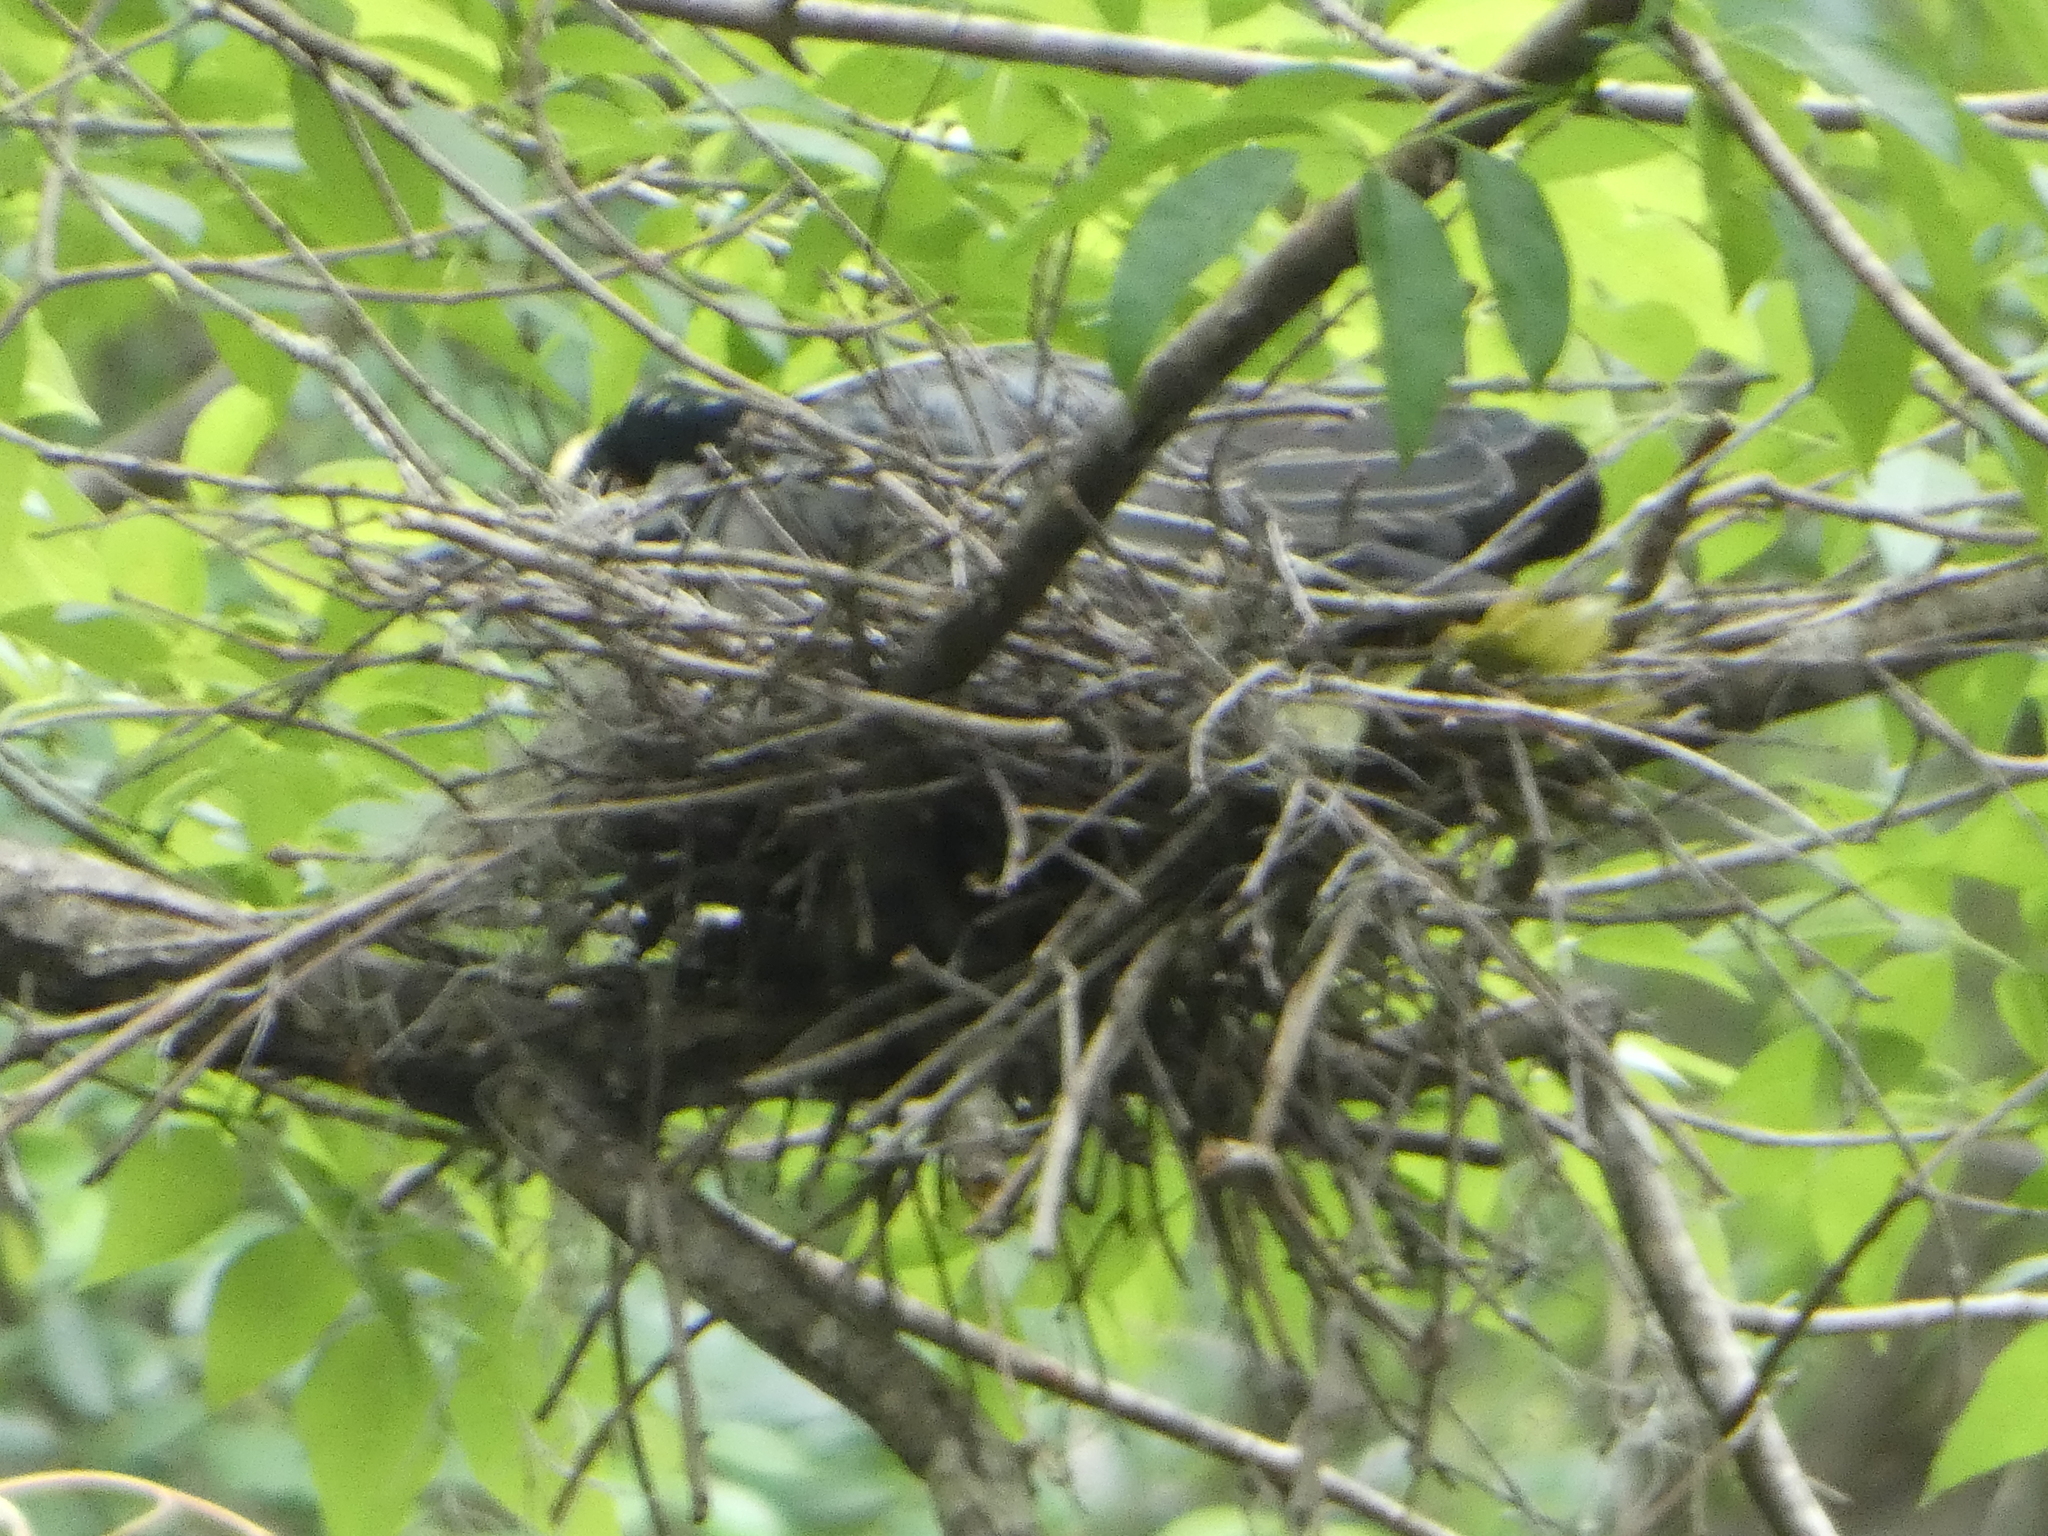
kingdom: Animalia
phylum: Chordata
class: Aves
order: Pelecaniformes
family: Ardeidae
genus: Nyctanassa
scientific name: Nyctanassa violacea
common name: Yellow-crowned night heron
